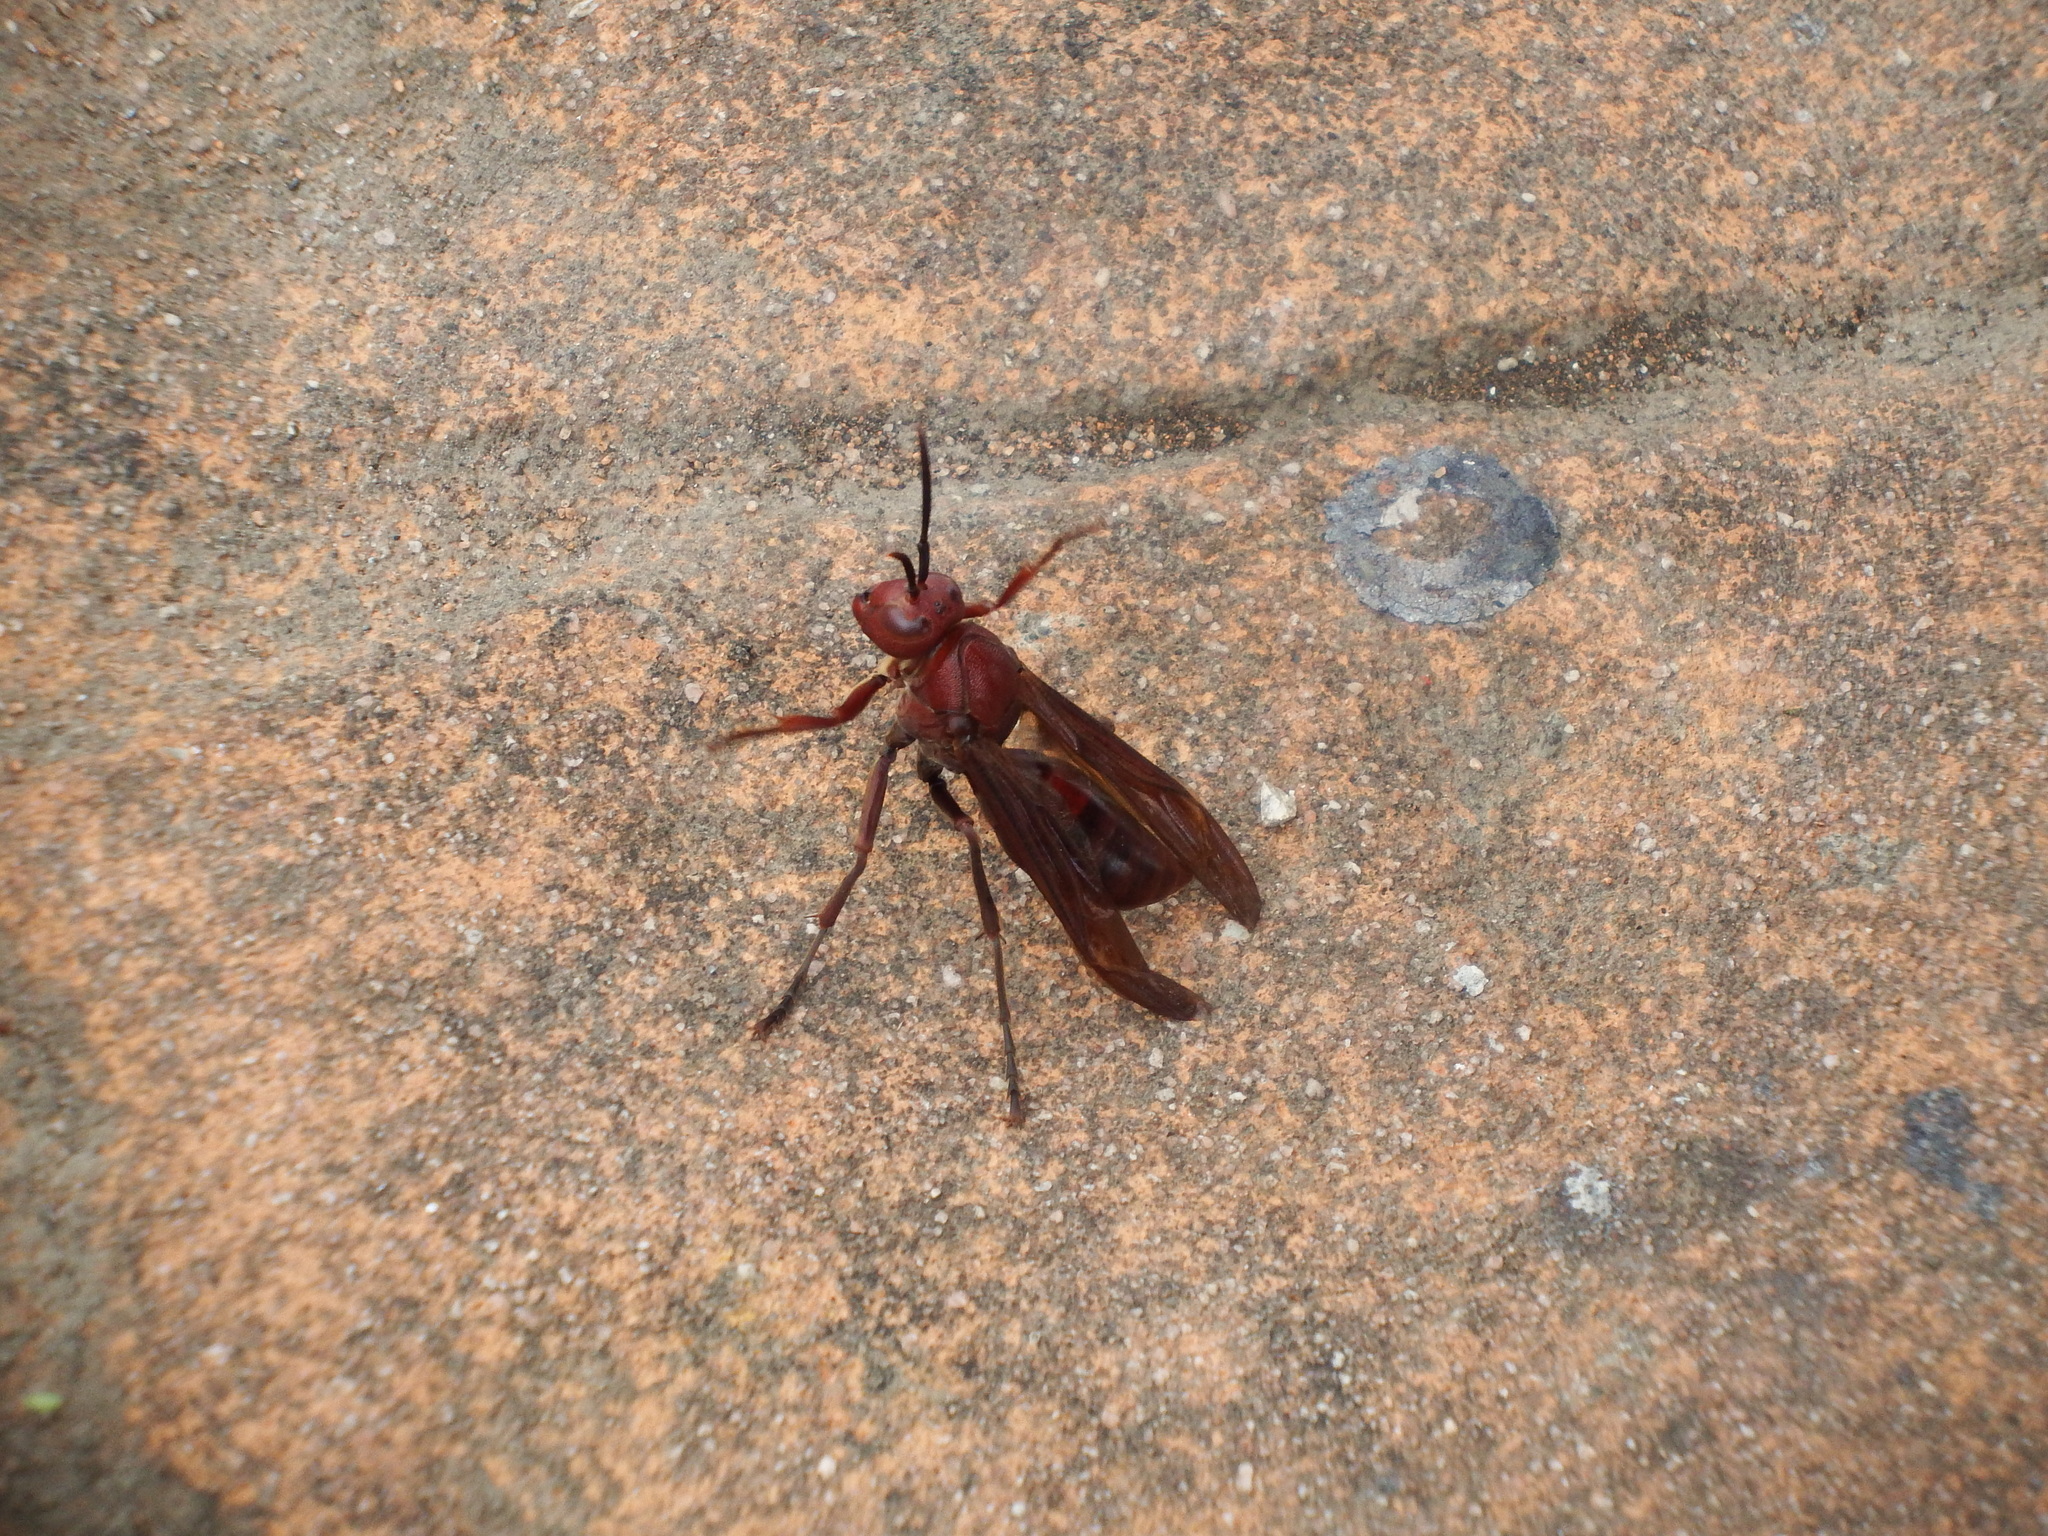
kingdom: Animalia
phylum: Arthropoda
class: Insecta
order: Hymenoptera
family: Eumenidae
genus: Polistes
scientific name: Polistes gigas
